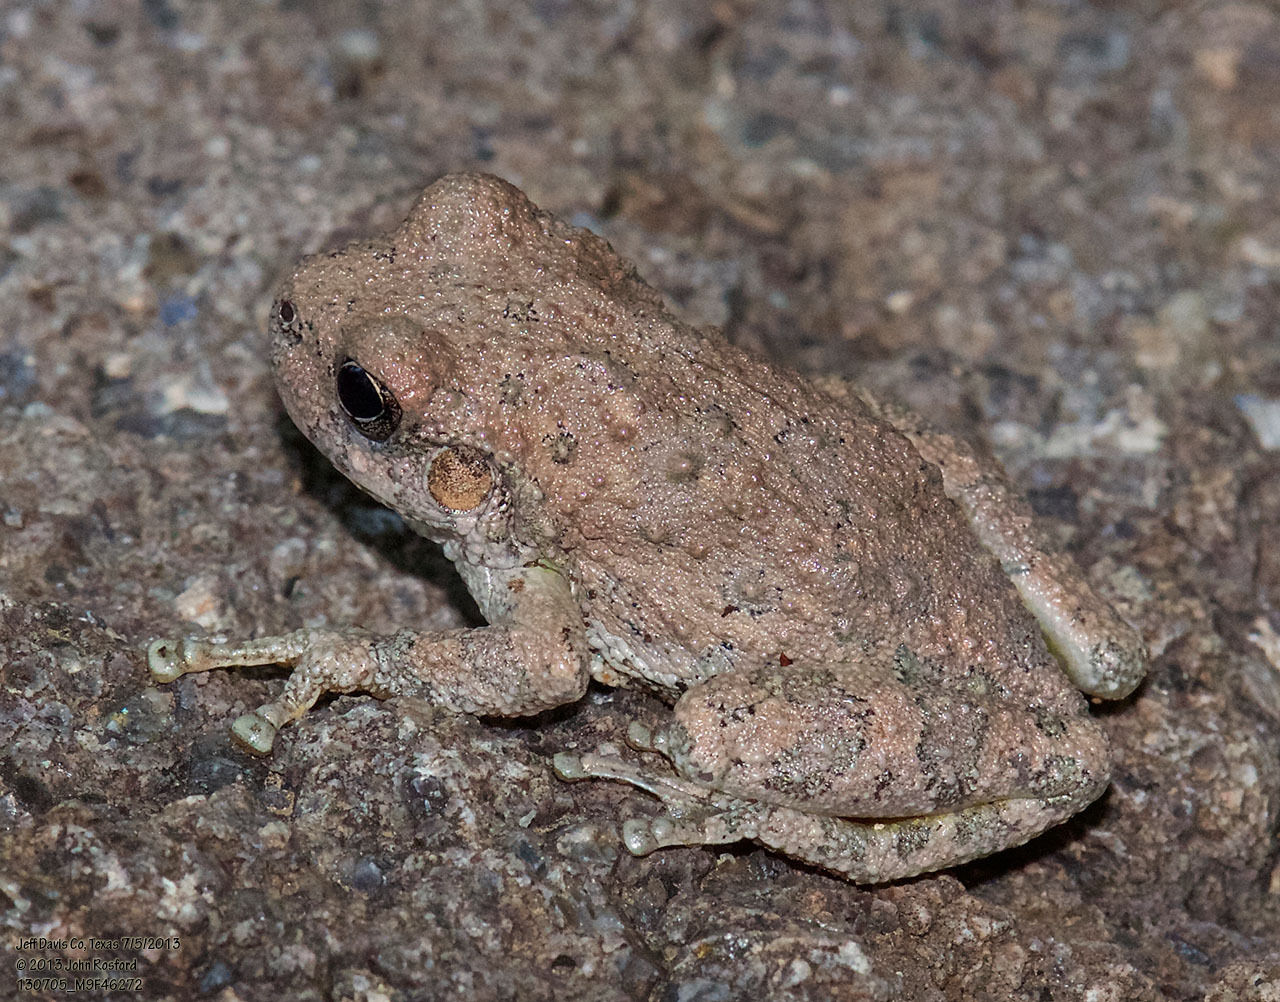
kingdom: Animalia
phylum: Chordata
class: Amphibia
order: Anura
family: Hylidae
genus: Dryophytes
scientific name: Dryophytes arenicolor
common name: Canyon treefrog
